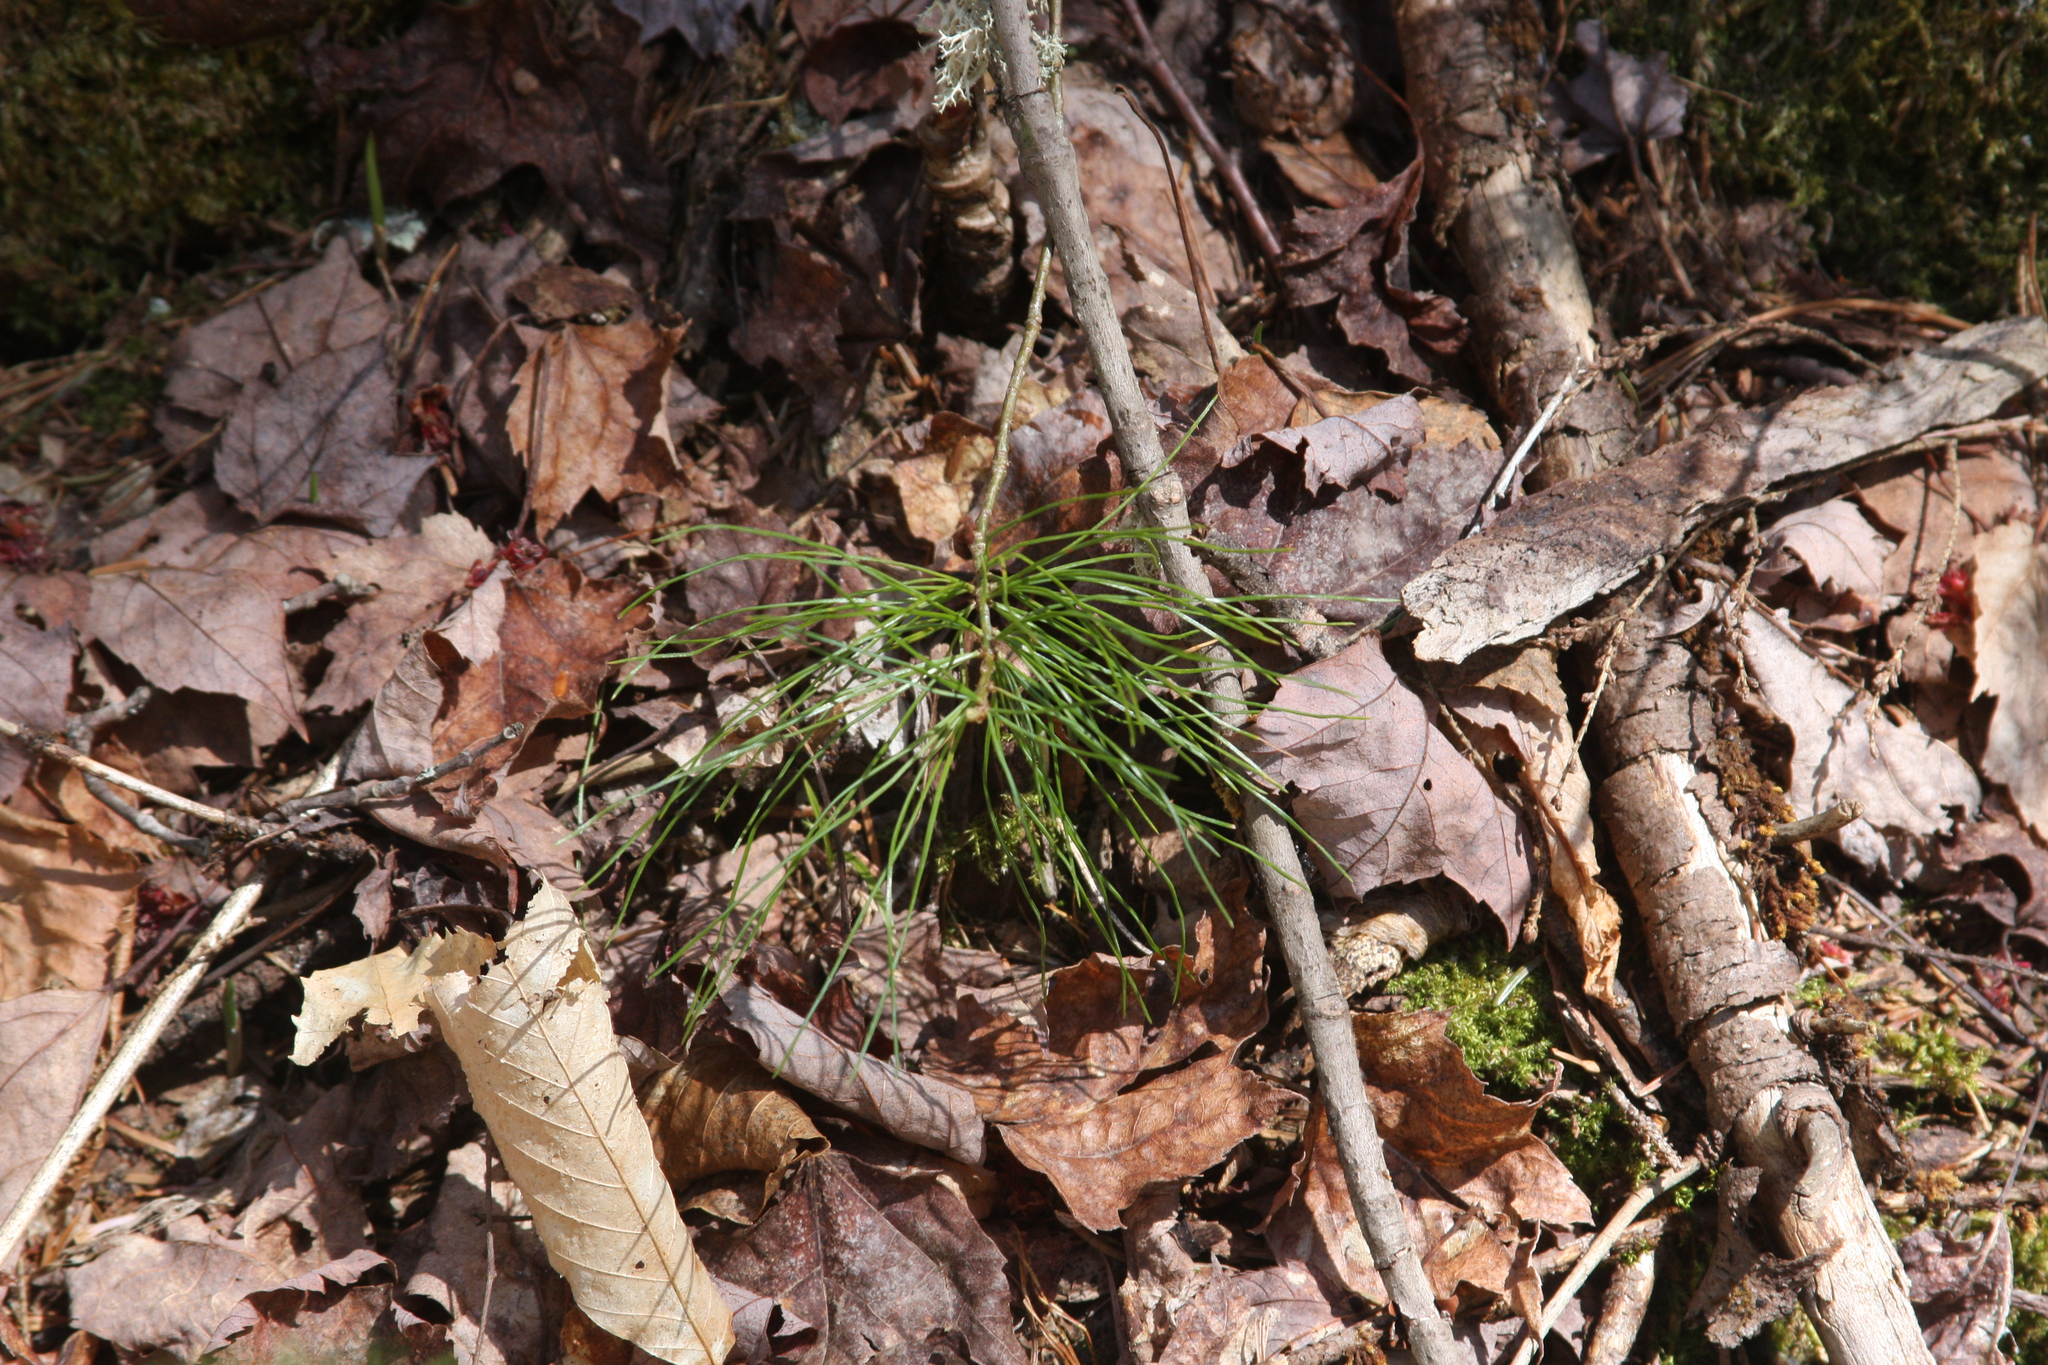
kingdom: Plantae
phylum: Tracheophyta
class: Pinopsida
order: Pinales
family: Pinaceae
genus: Pinus
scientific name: Pinus strobus
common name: Weymouth pine
